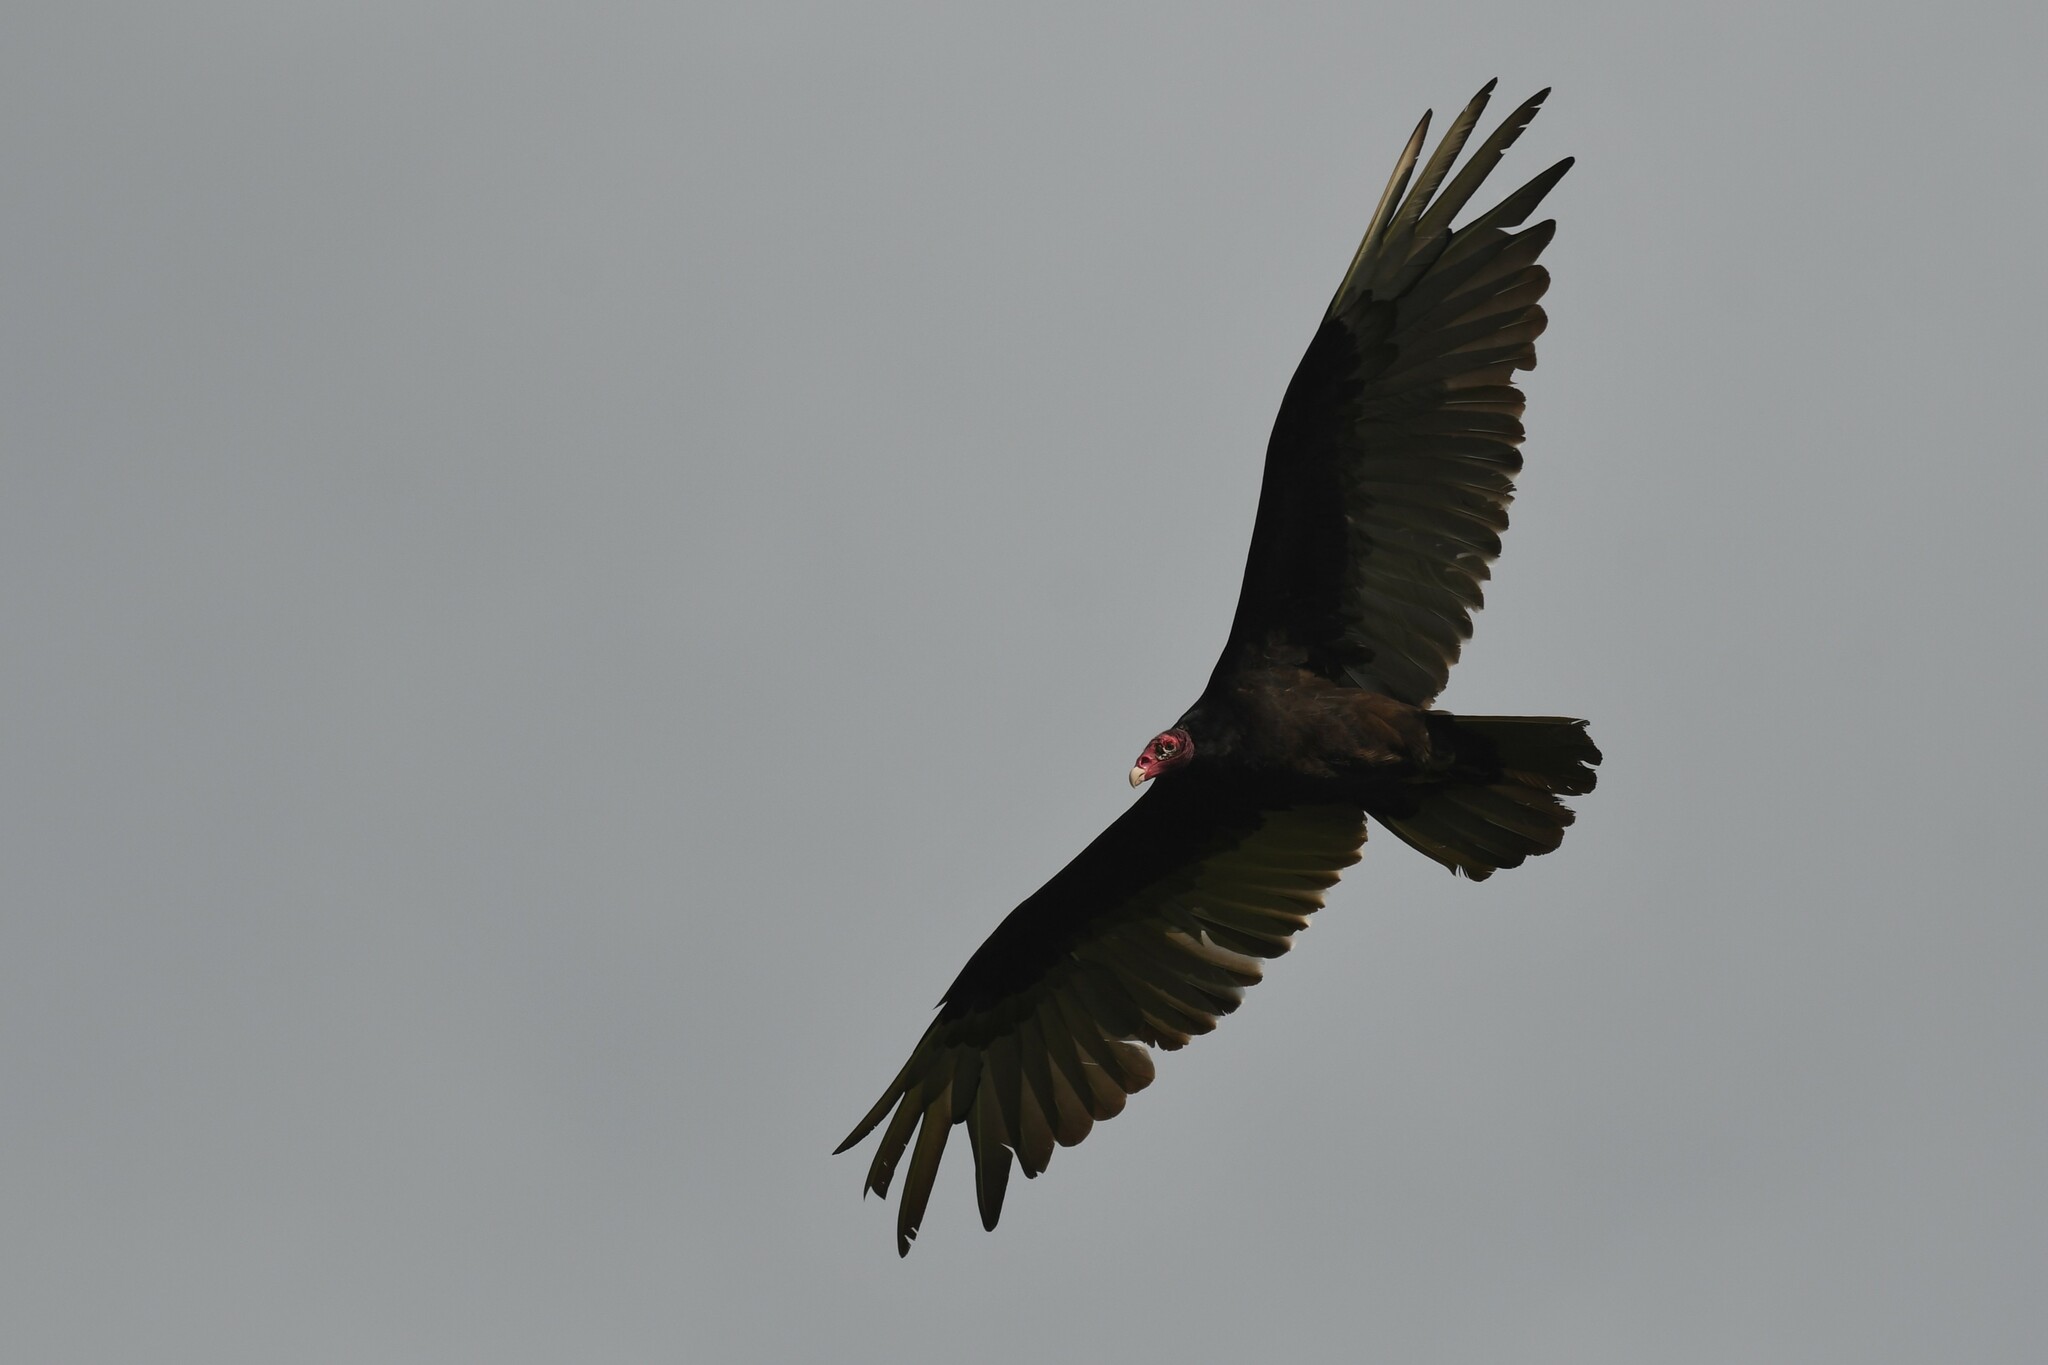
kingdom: Animalia
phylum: Chordata
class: Aves
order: Accipitriformes
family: Cathartidae
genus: Cathartes
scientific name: Cathartes aura
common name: Turkey vulture
